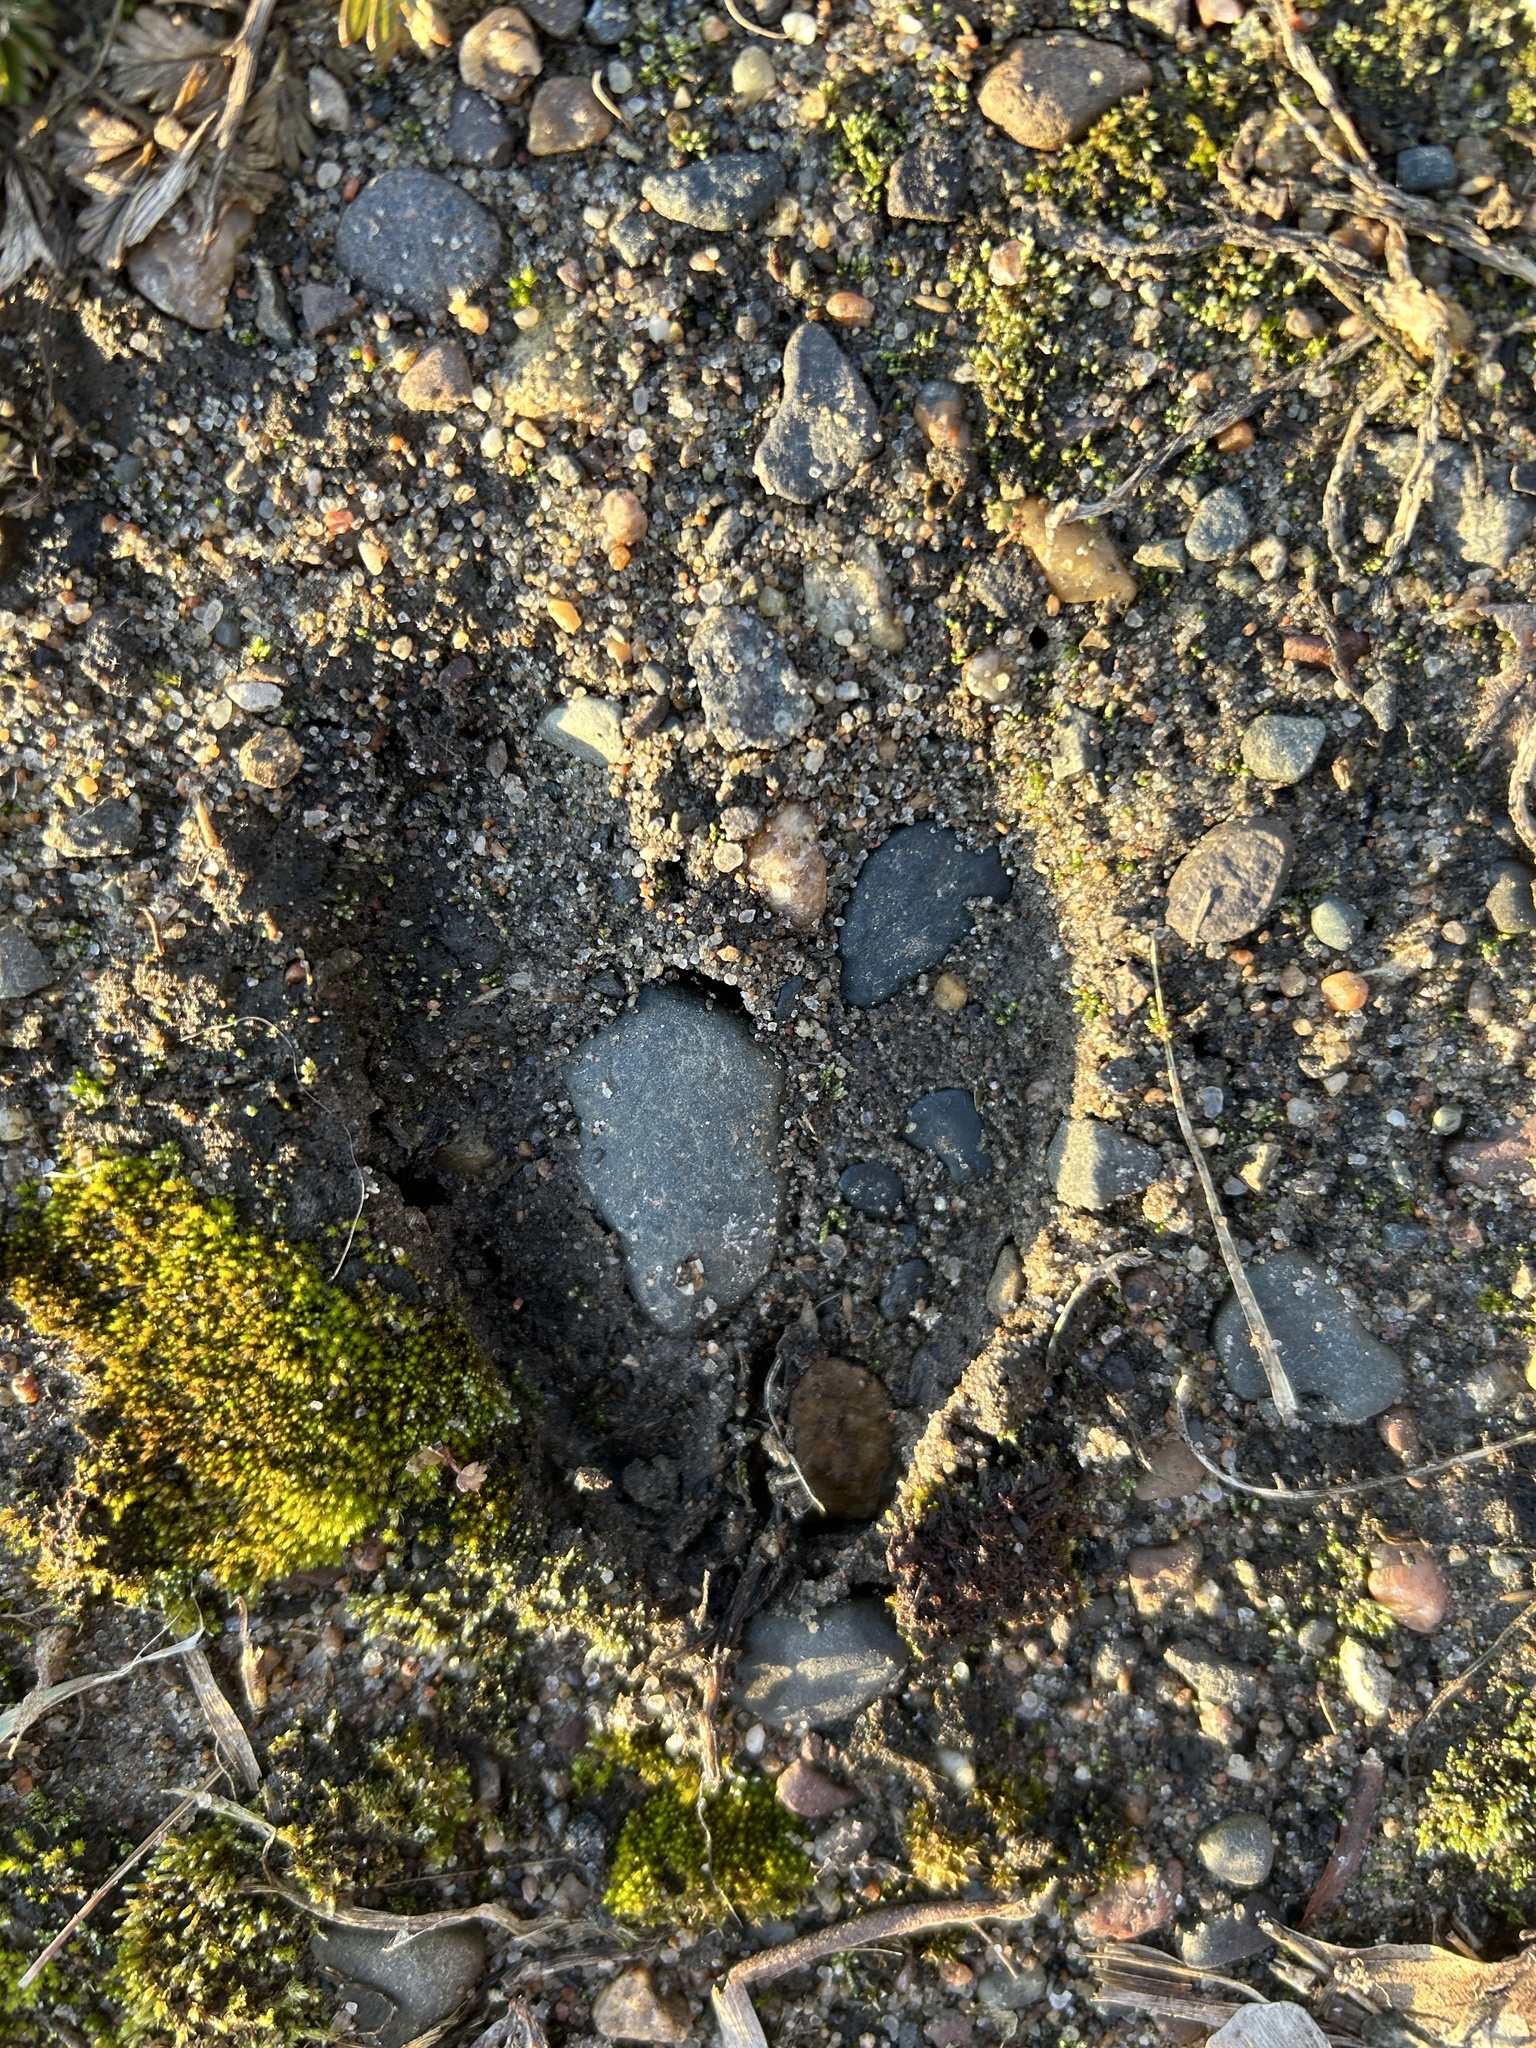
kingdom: Animalia
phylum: Chordata
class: Mammalia
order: Artiodactyla
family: Cervidae
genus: Odocoileus
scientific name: Odocoileus virginianus
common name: White-tailed deer
